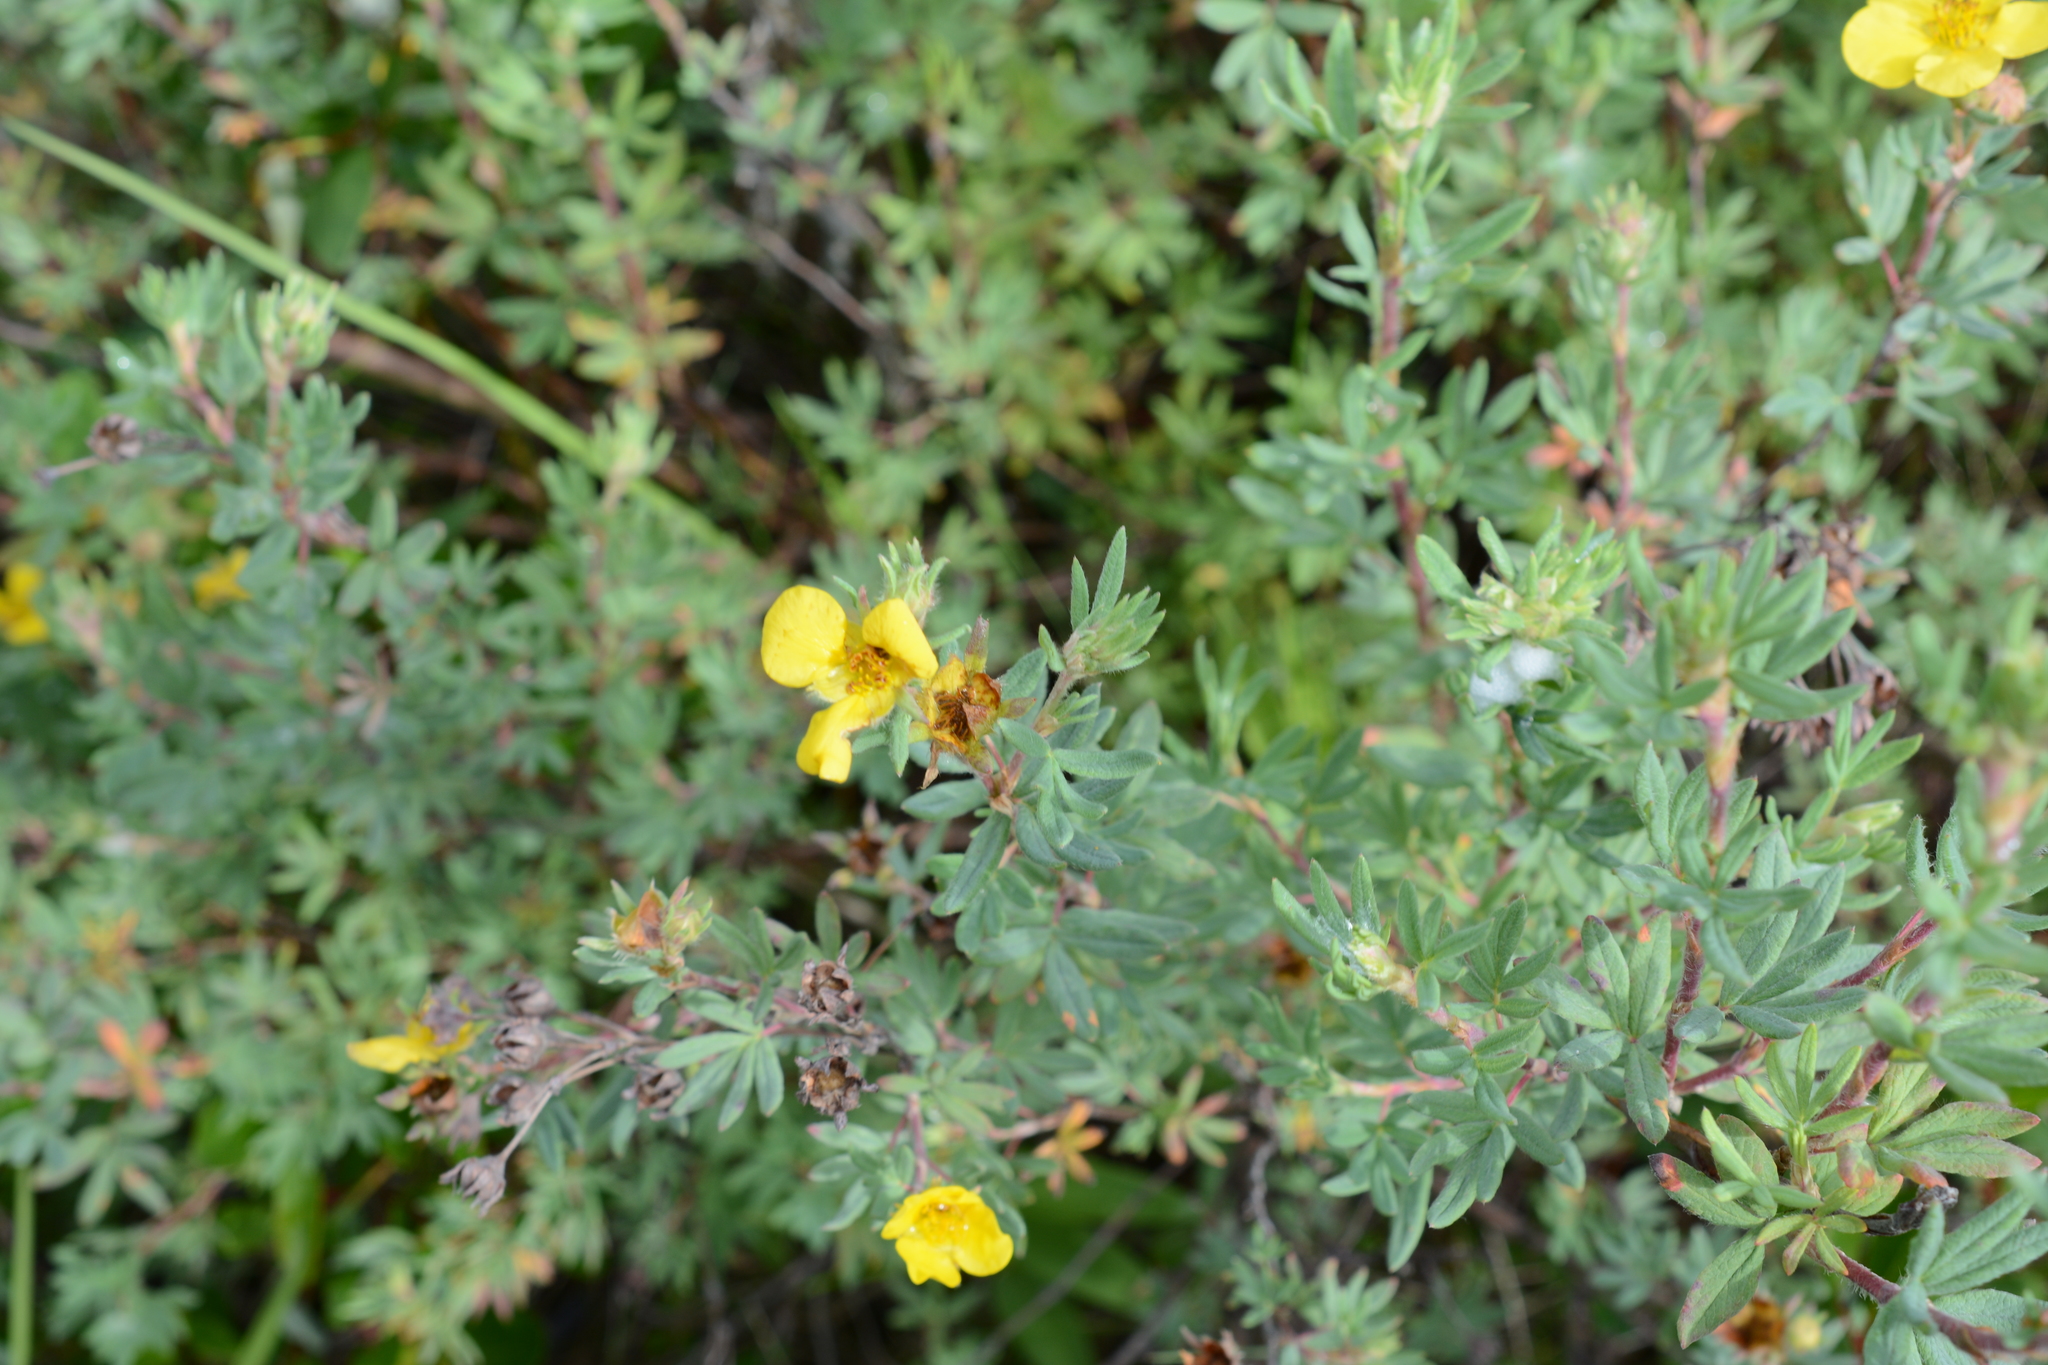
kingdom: Plantae
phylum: Tracheophyta
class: Magnoliopsida
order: Rosales
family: Rosaceae
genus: Dasiphora
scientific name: Dasiphora fruticosa
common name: Shrubby cinquefoil
